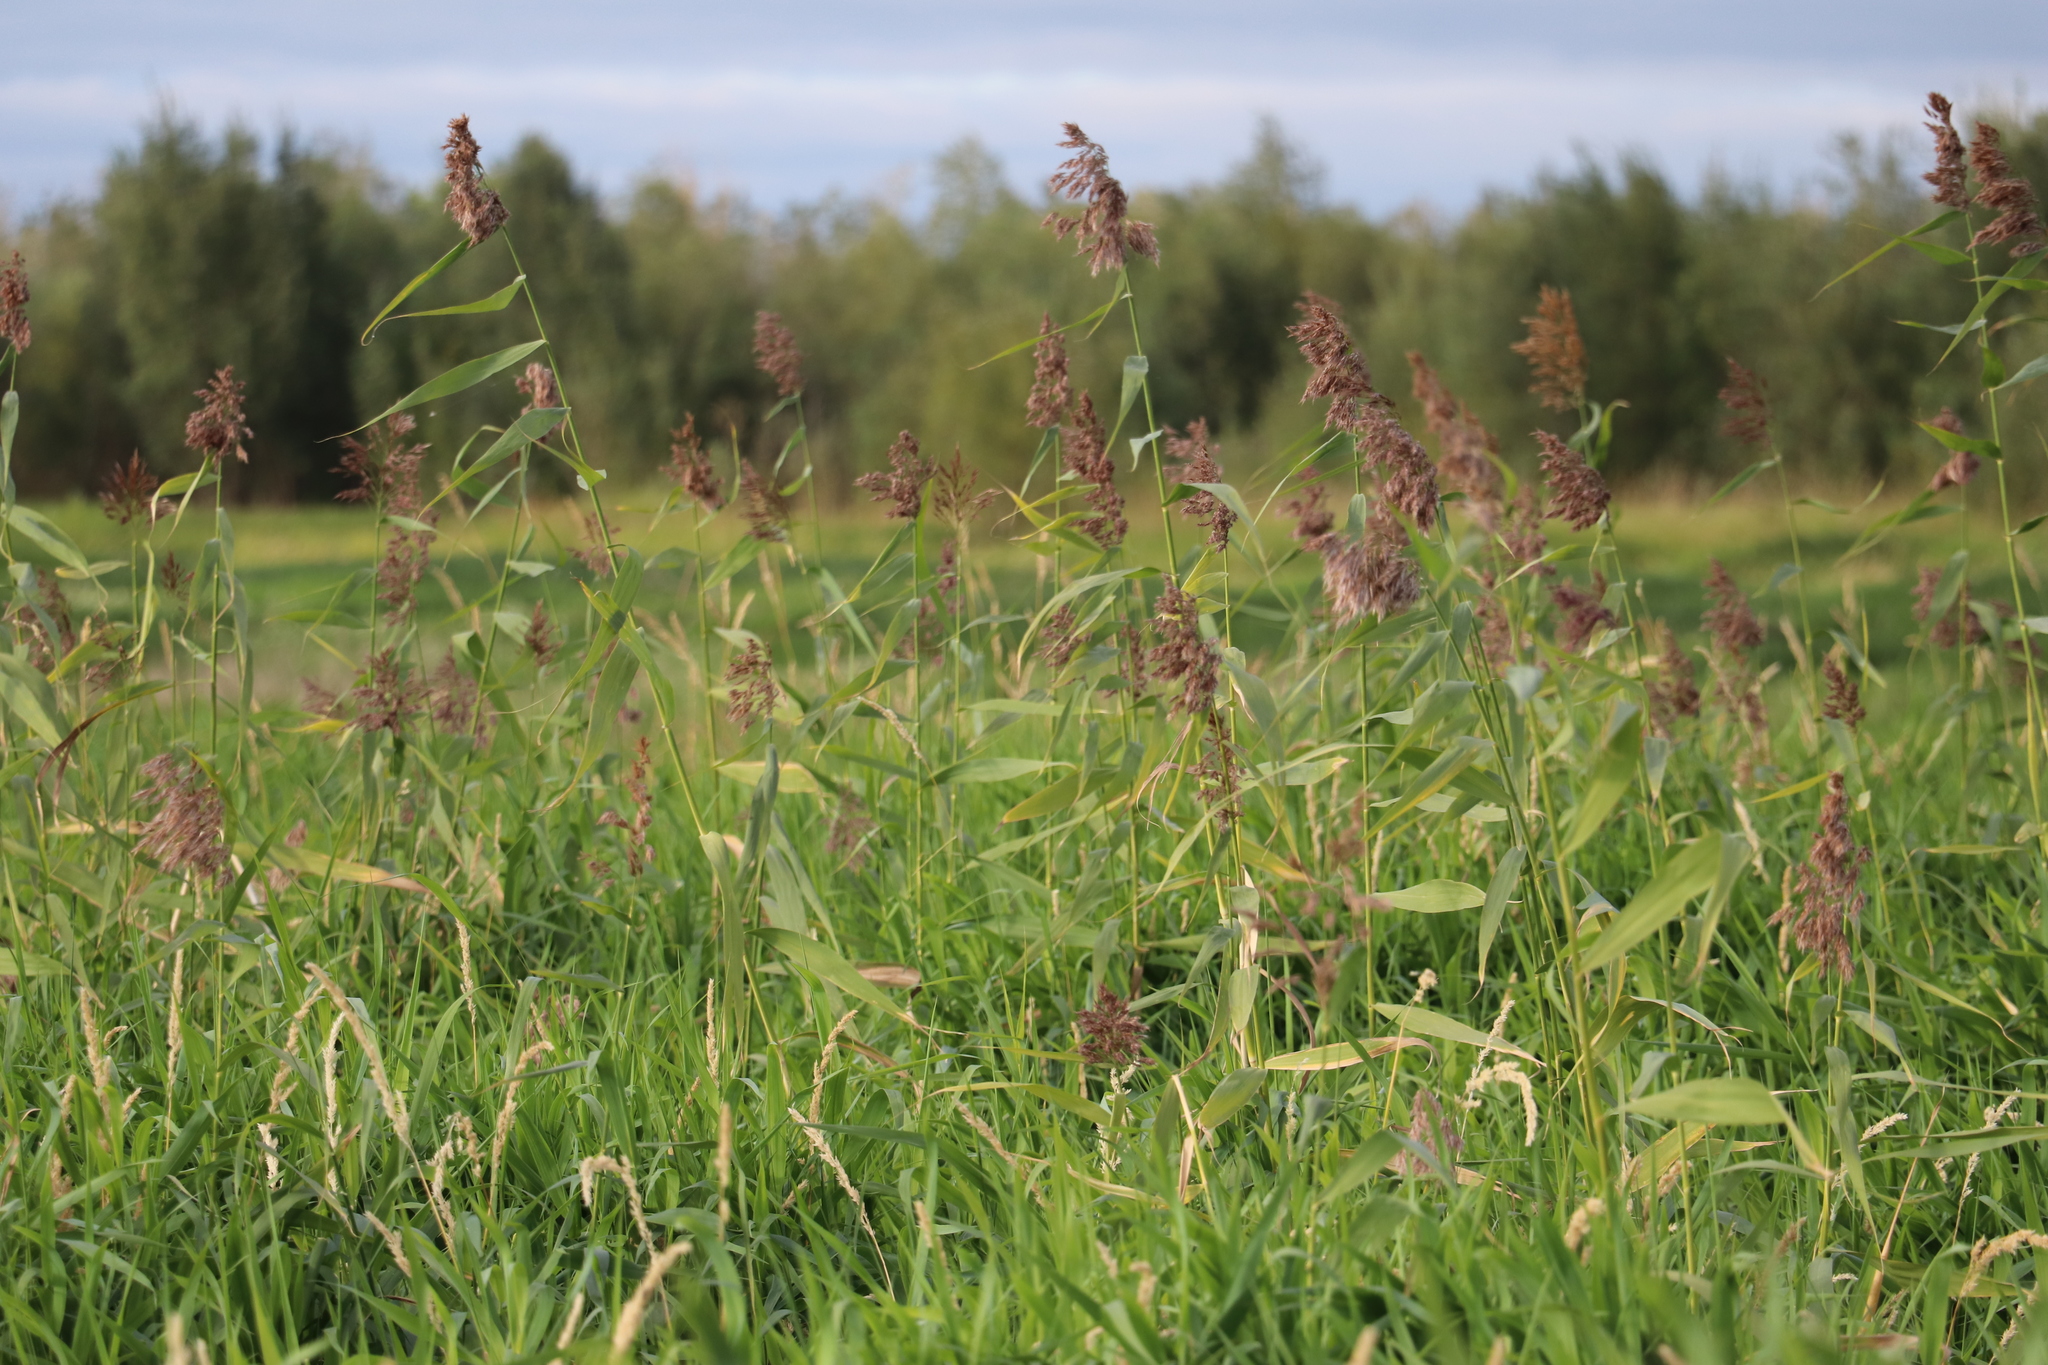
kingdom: Plantae
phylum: Tracheophyta
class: Liliopsida
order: Poales
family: Poaceae
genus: Phragmites
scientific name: Phragmites australis
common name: Common reed
